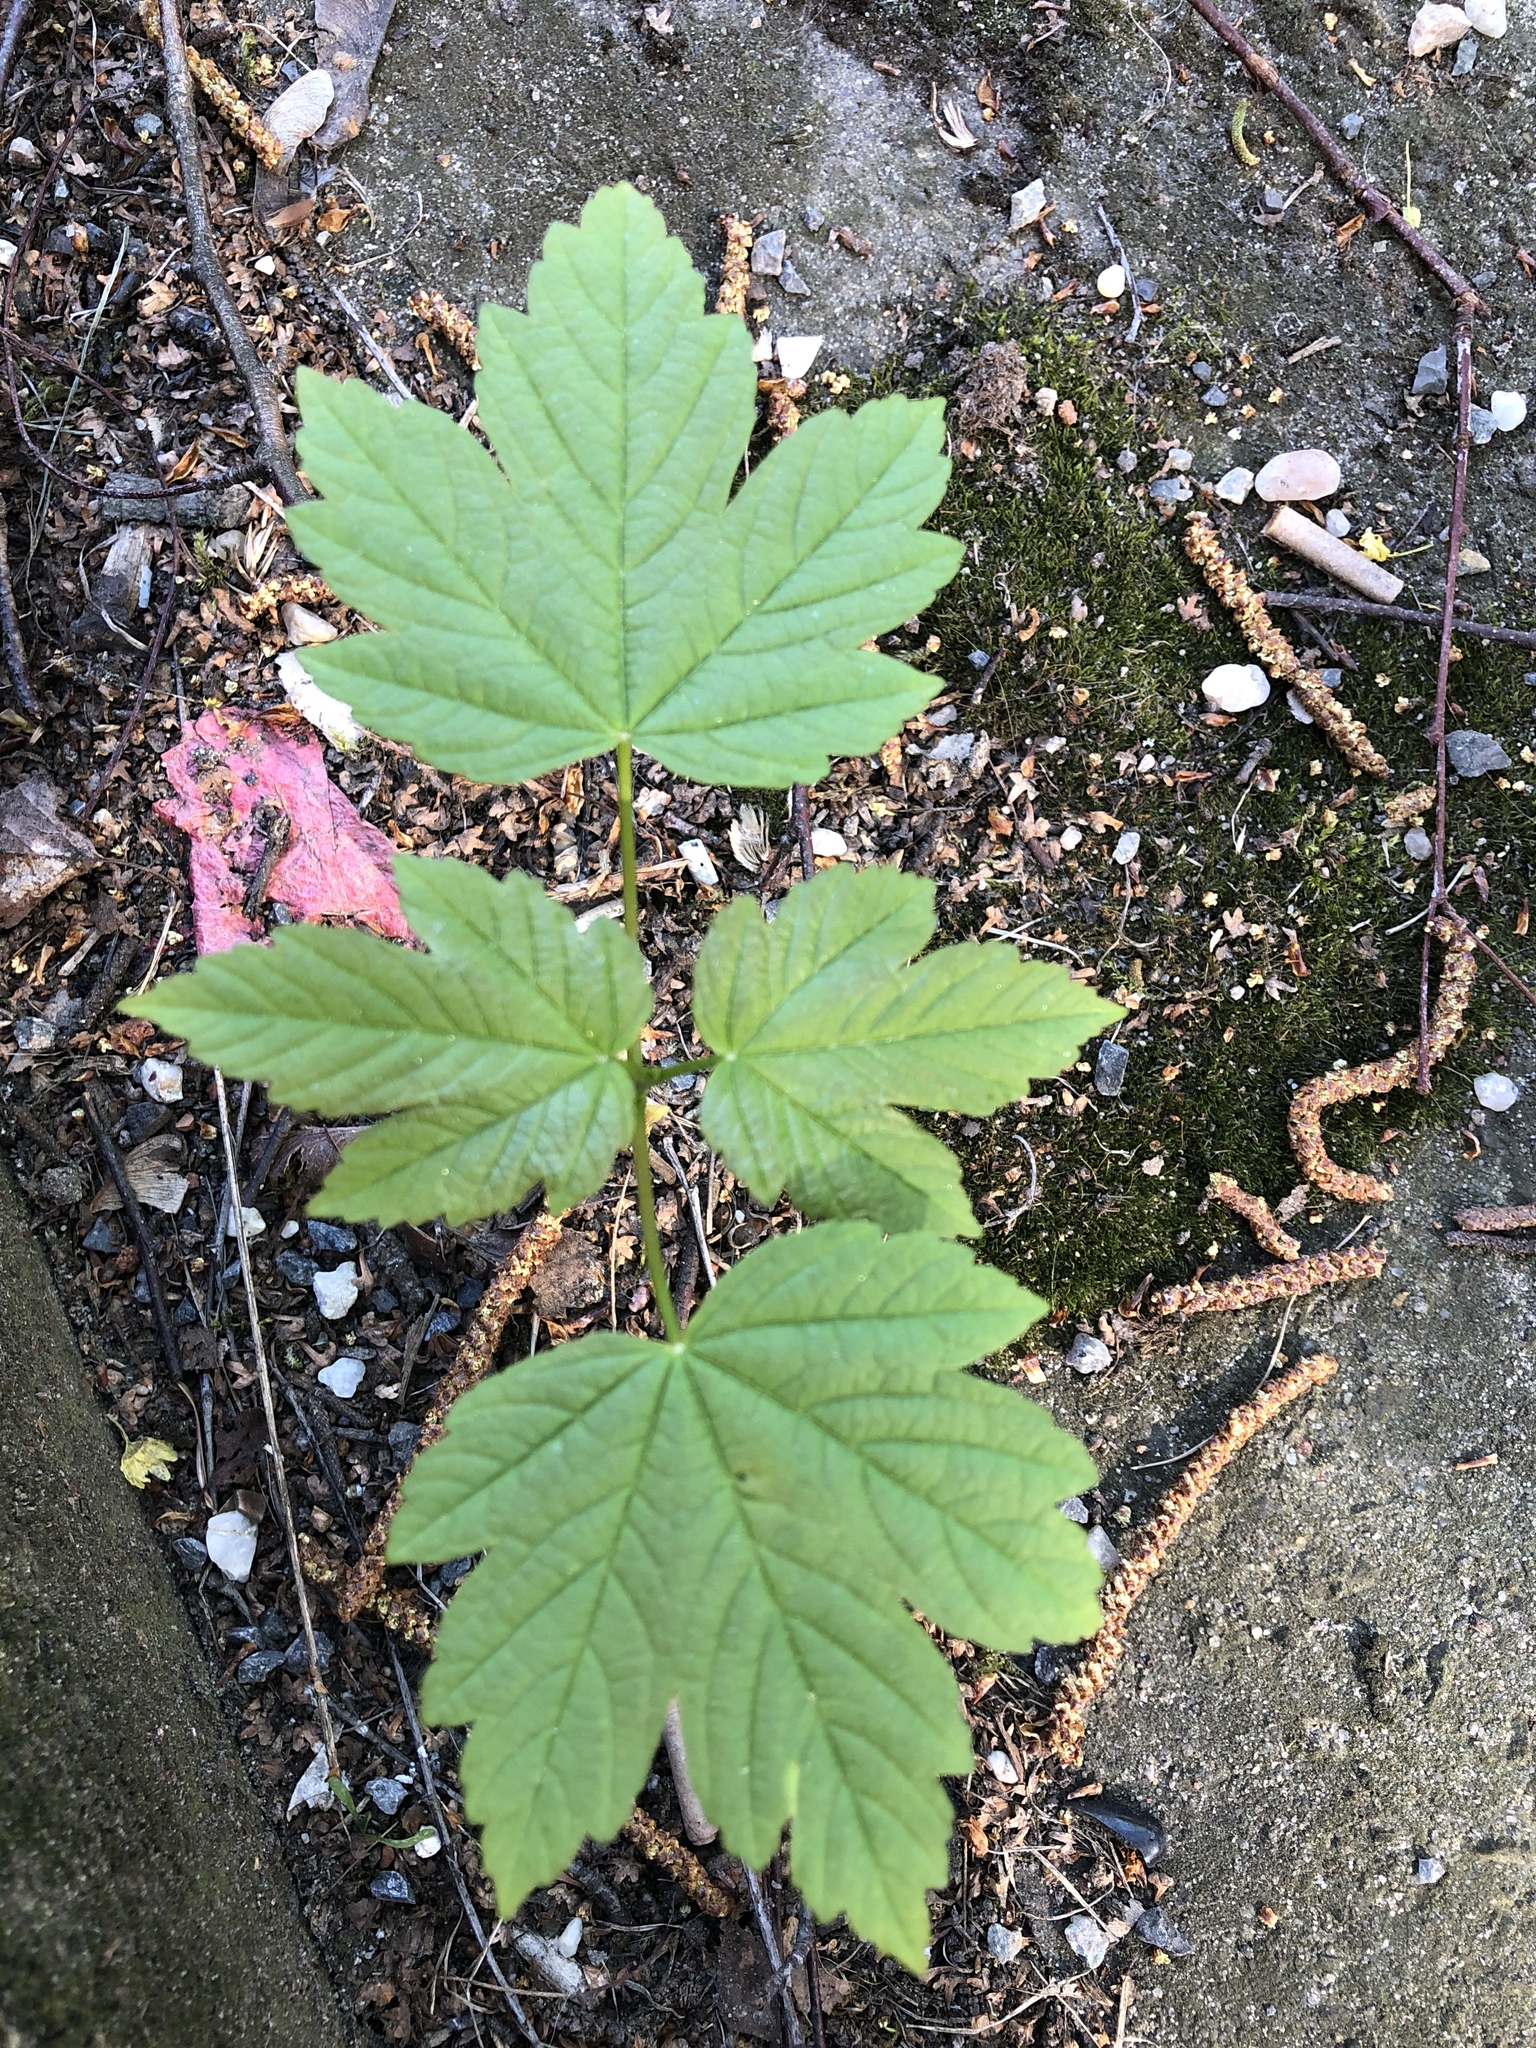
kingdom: Plantae
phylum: Tracheophyta
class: Magnoliopsida
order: Sapindales
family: Sapindaceae
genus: Acer
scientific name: Acer pseudoplatanus
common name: Sycamore
